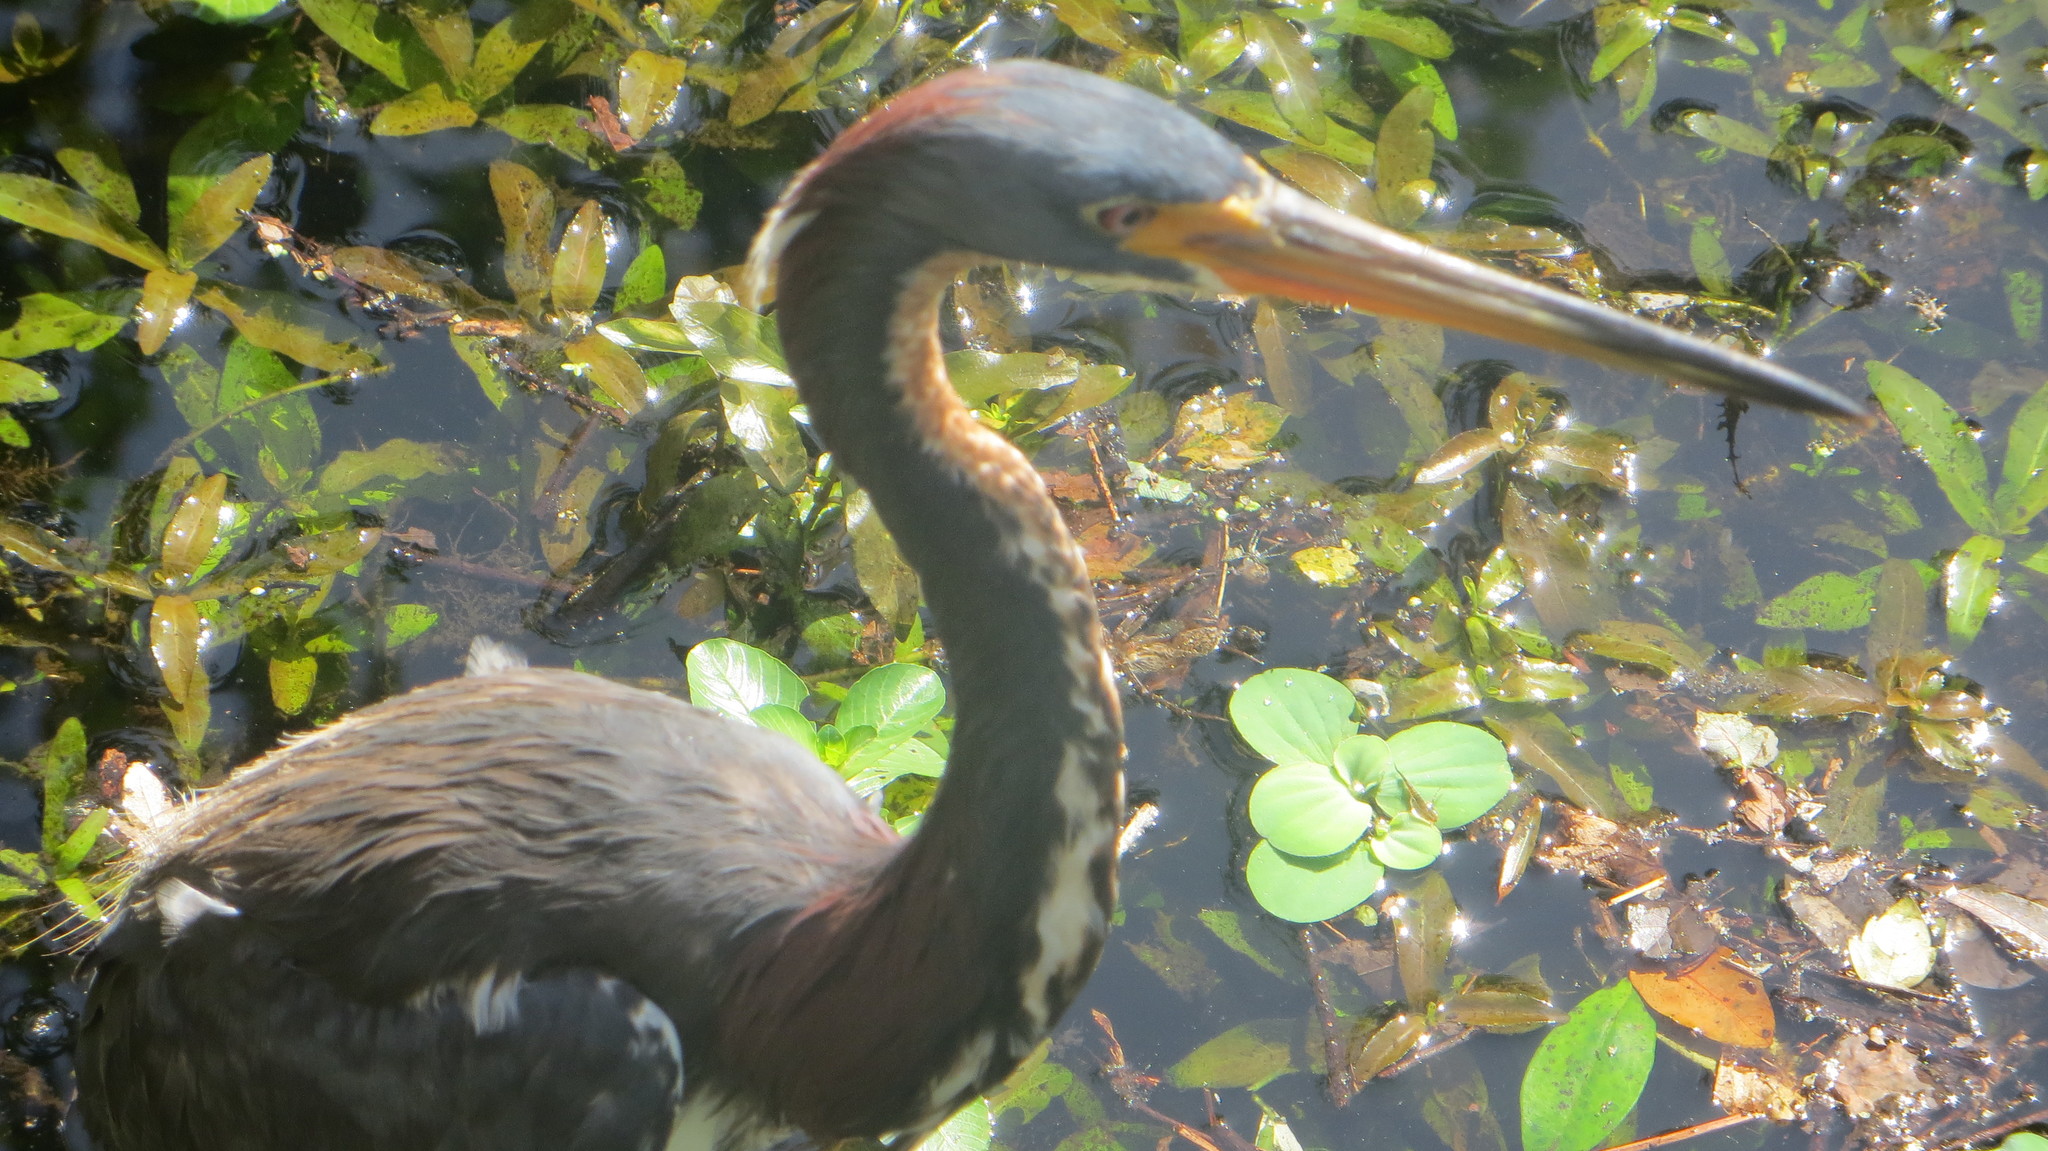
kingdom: Animalia
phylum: Chordata
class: Aves
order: Pelecaniformes
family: Ardeidae
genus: Egretta
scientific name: Egretta tricolor
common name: Tricolored heron
